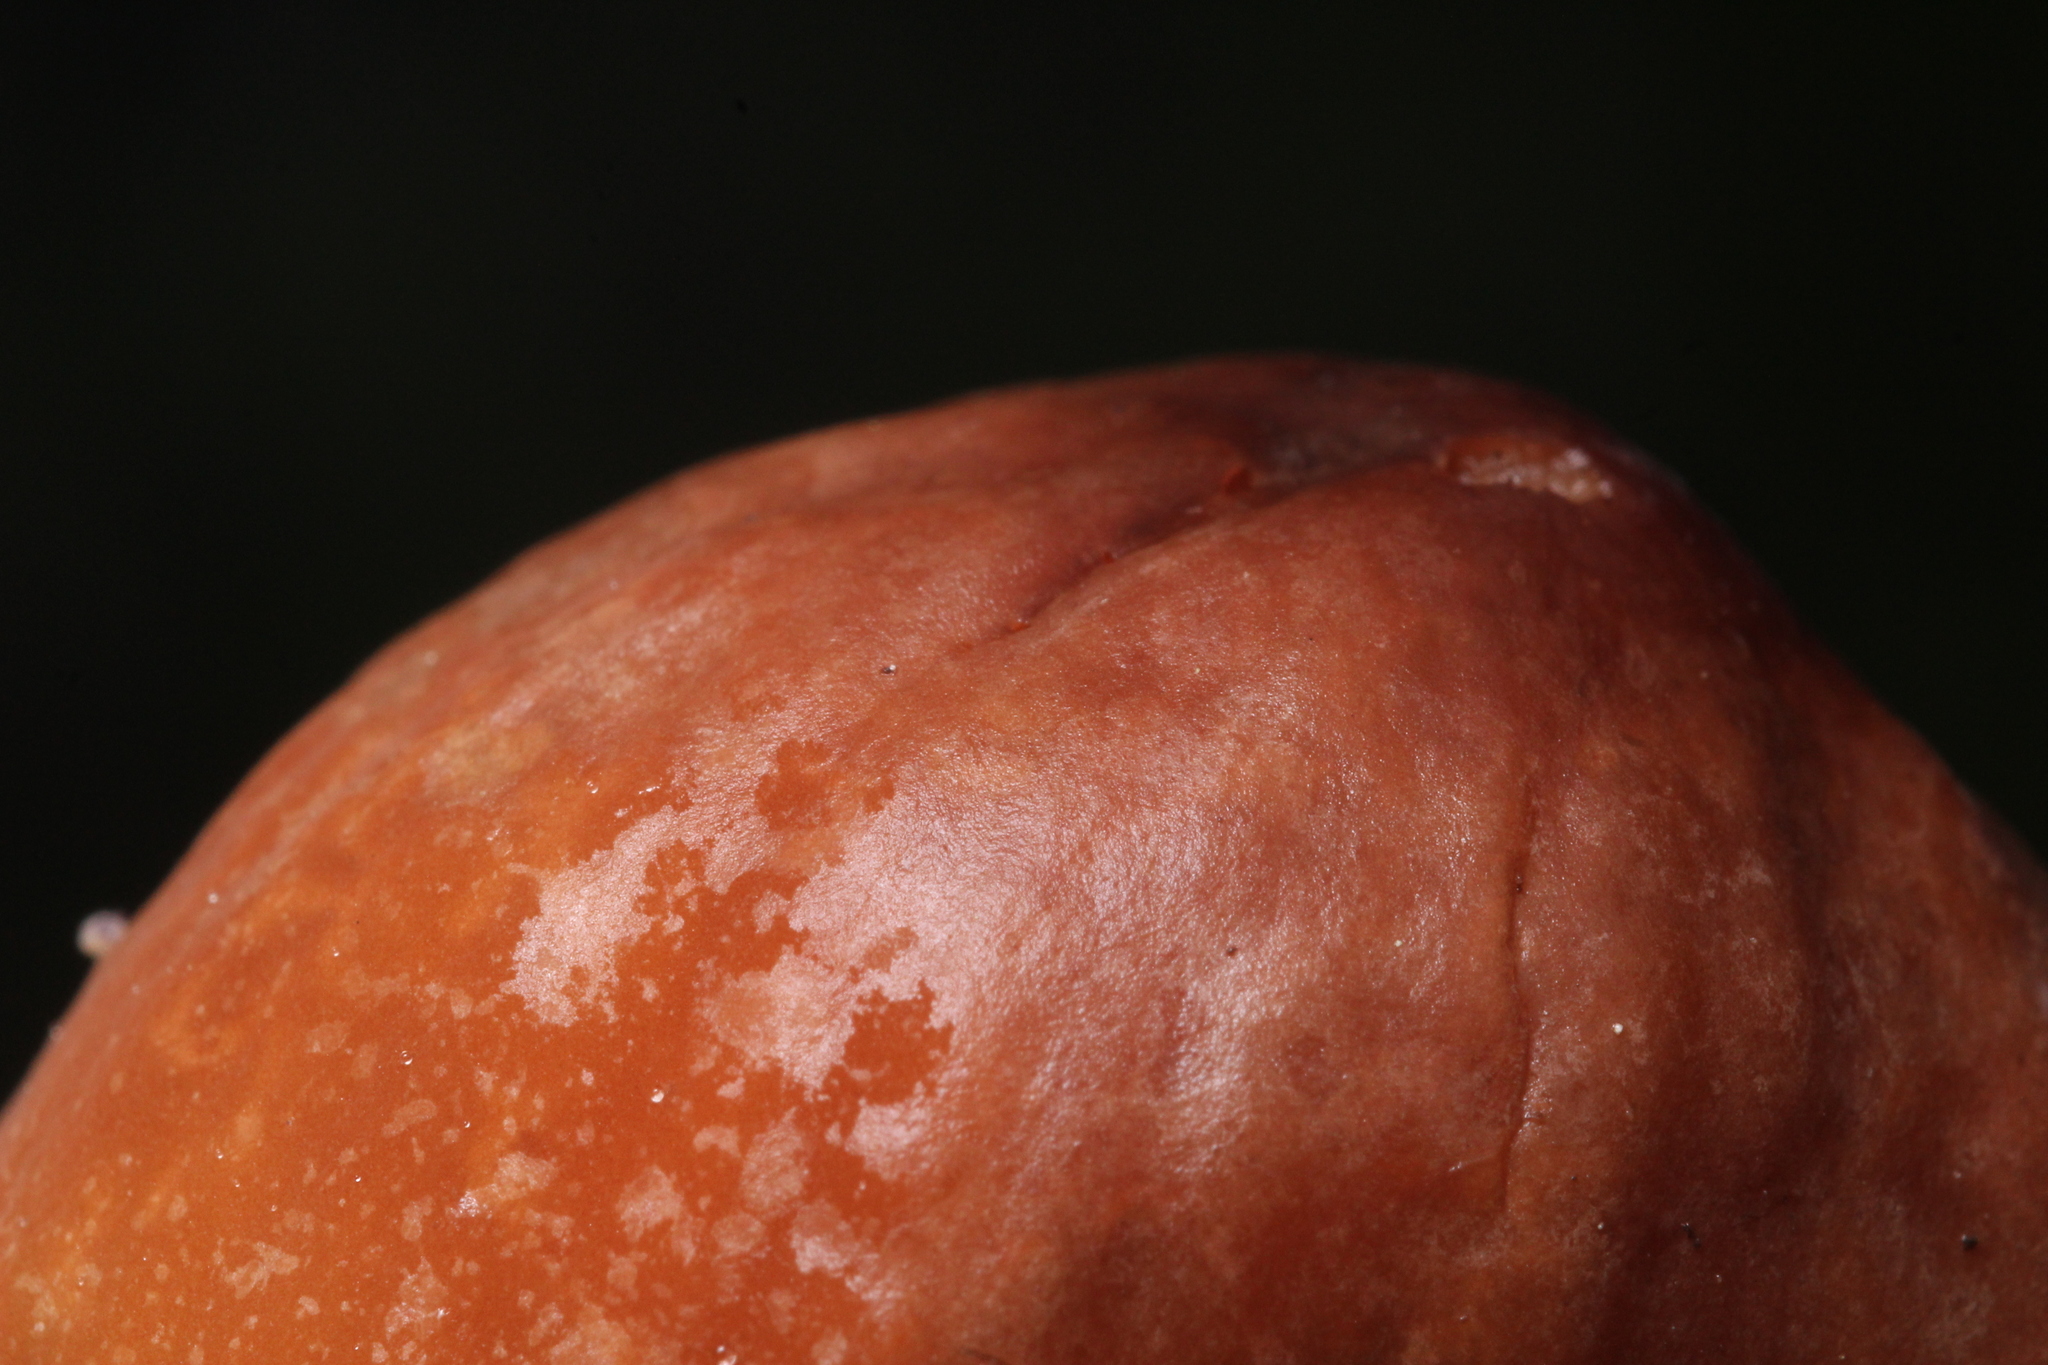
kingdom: Fungi
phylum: Basidiomycota
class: Agaricomycetes
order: Agaricales
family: Marasmiaceae
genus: Marasmius
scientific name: Marasmius plicatulus
